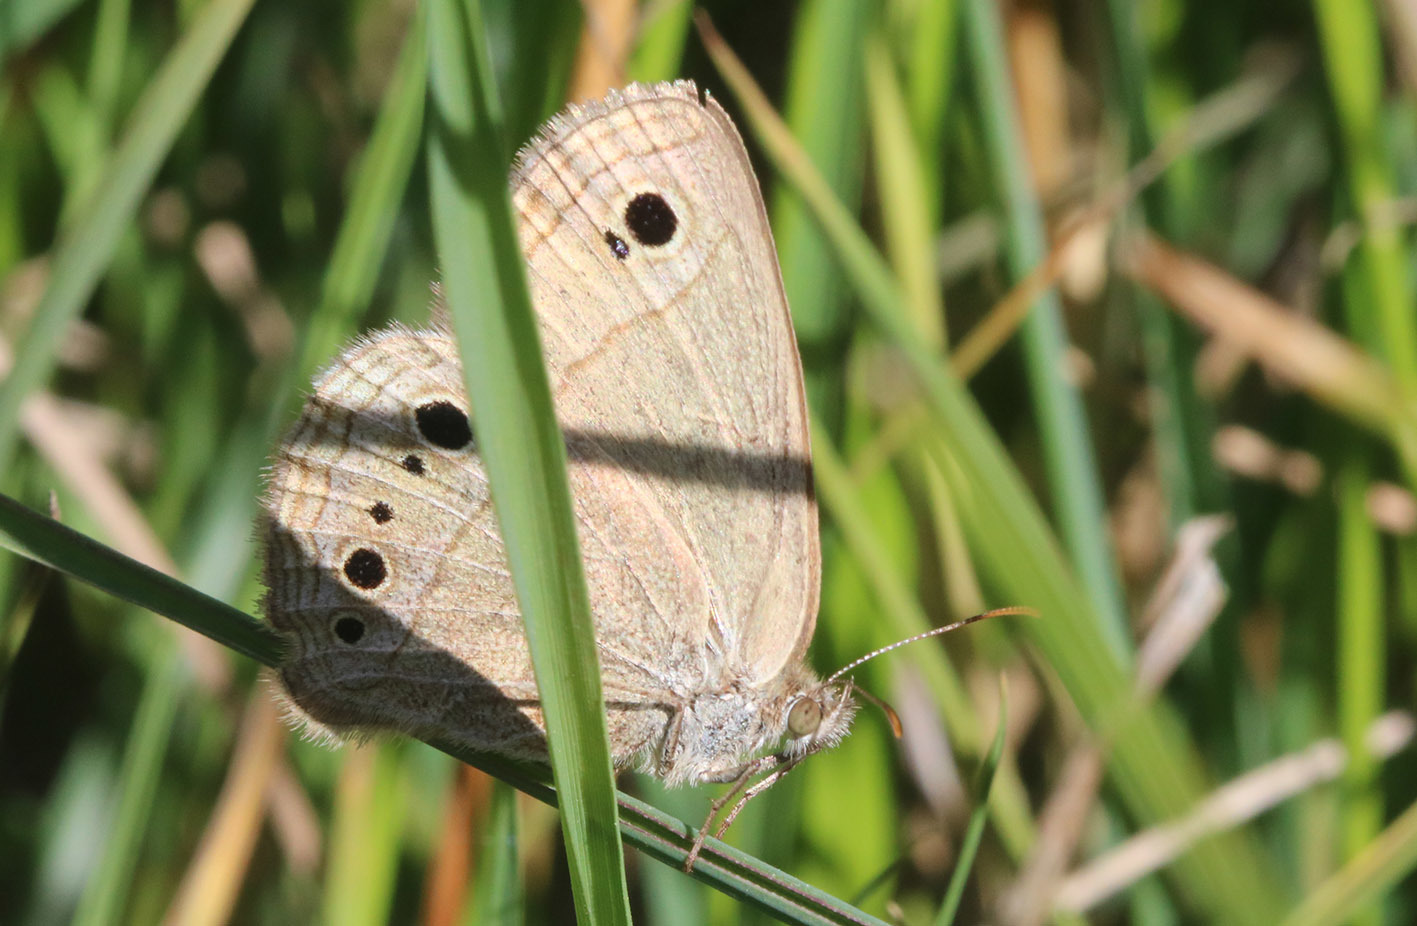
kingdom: Animalia
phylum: Arthropoda
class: Insecta
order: Lepidoptera
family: Nymphalidae
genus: Stegosatyrus
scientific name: Stegosatyrus periphas
